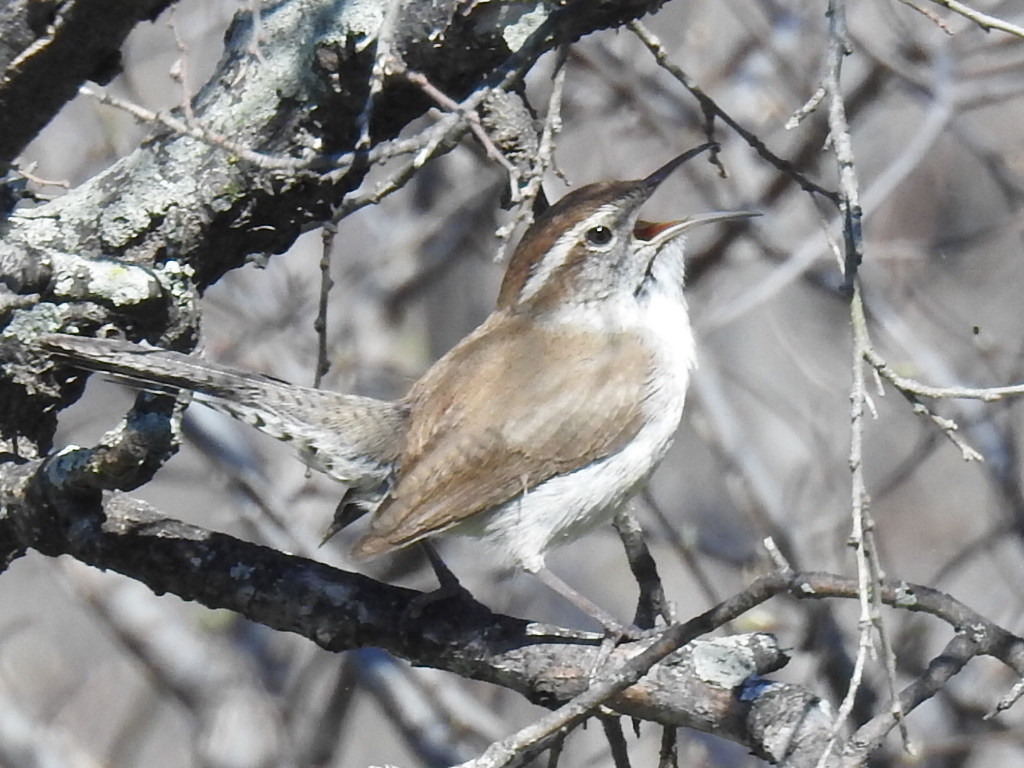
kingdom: Animalia
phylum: Chordata
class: Aves
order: Passeriformes
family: Troglodytidae
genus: Thryomanes
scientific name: Thryomanes bewickii
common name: Bewick's wren
